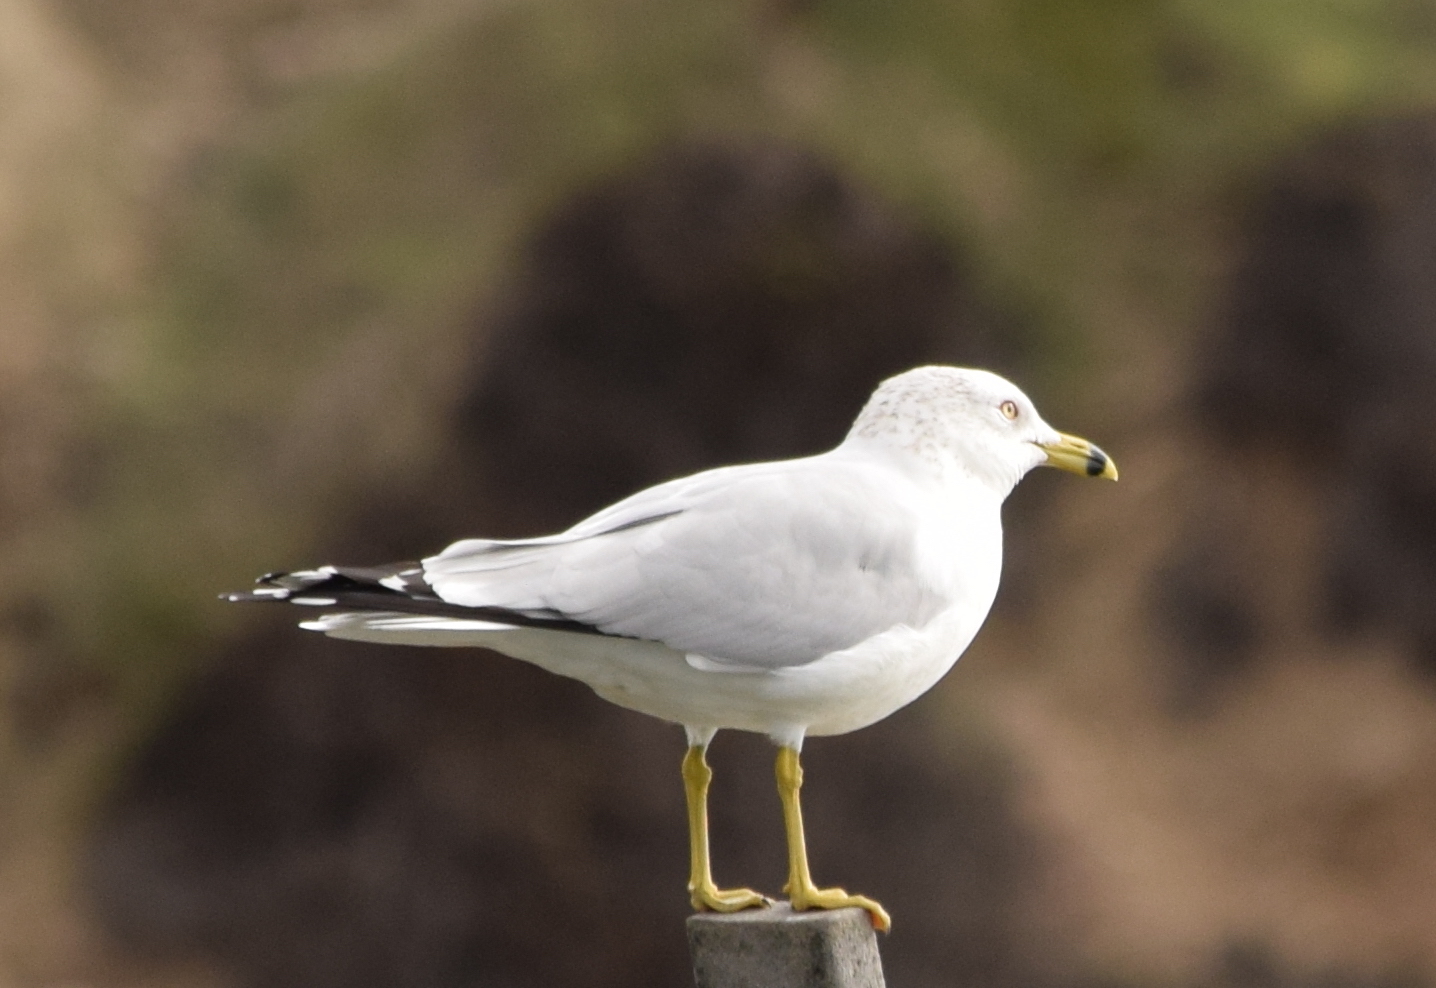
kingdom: Animalia
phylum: Chordata
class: Aves
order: Charadriiformes
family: Laridae
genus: Larus
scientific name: Larus delawarensis
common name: Ring-billed gull
